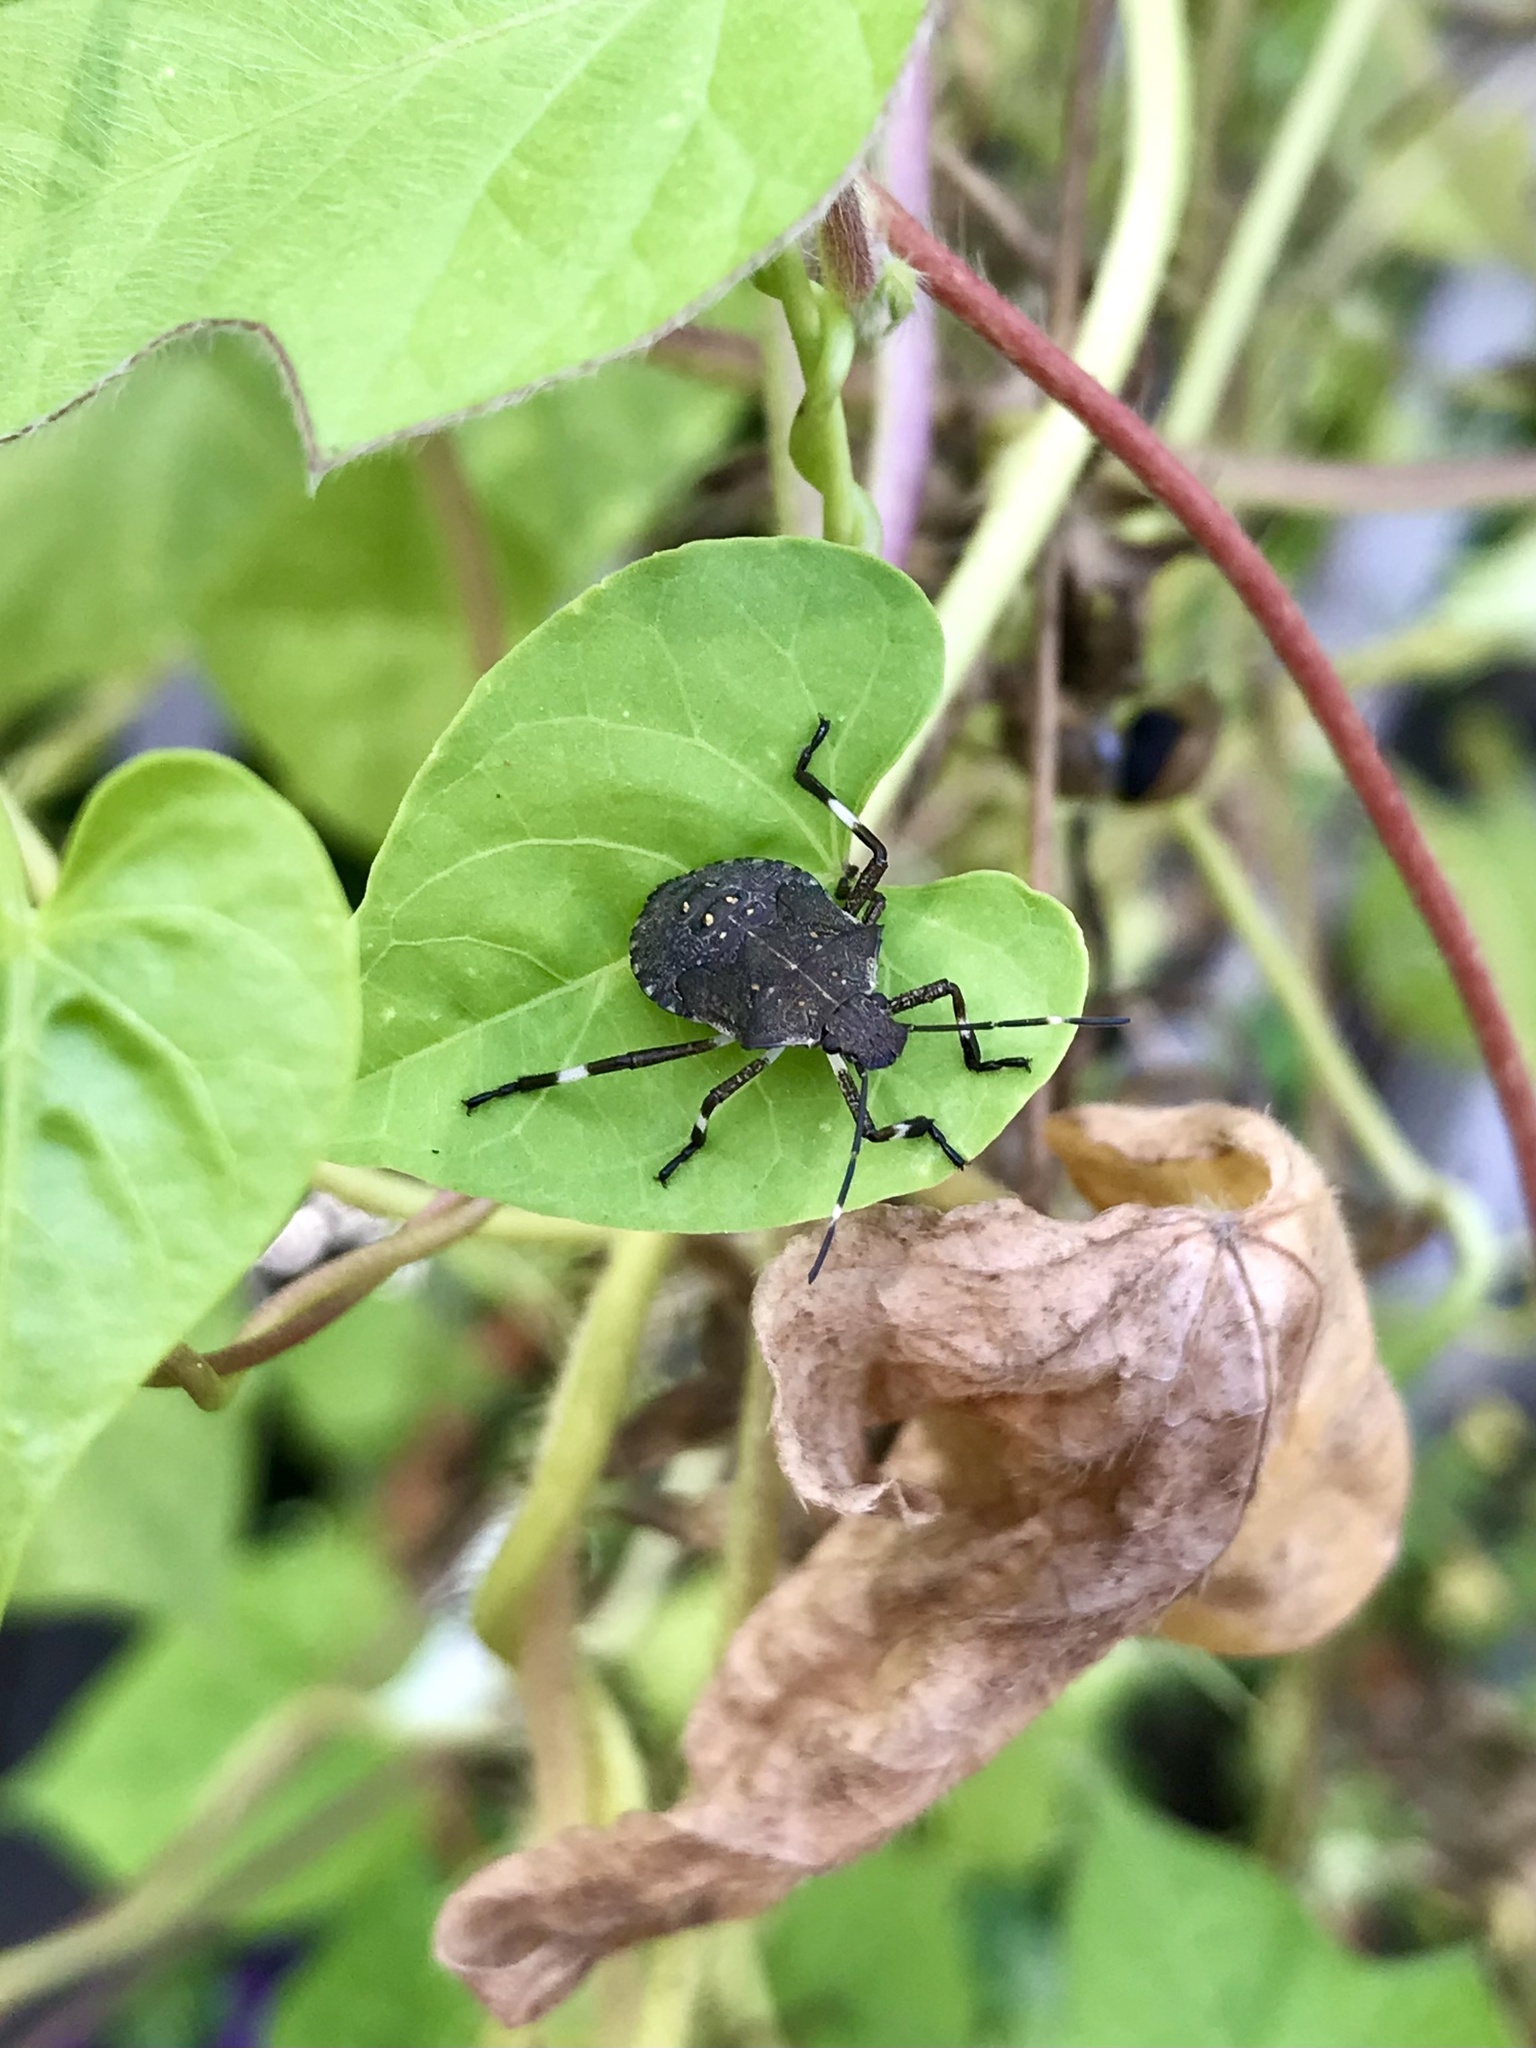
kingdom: Animalia
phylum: Arthropoda
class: Insecta
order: Hemiptera
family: Pentatomidae
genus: Halyomorpha
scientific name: Halyomorpha halys
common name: Brown marmorated stink bug
